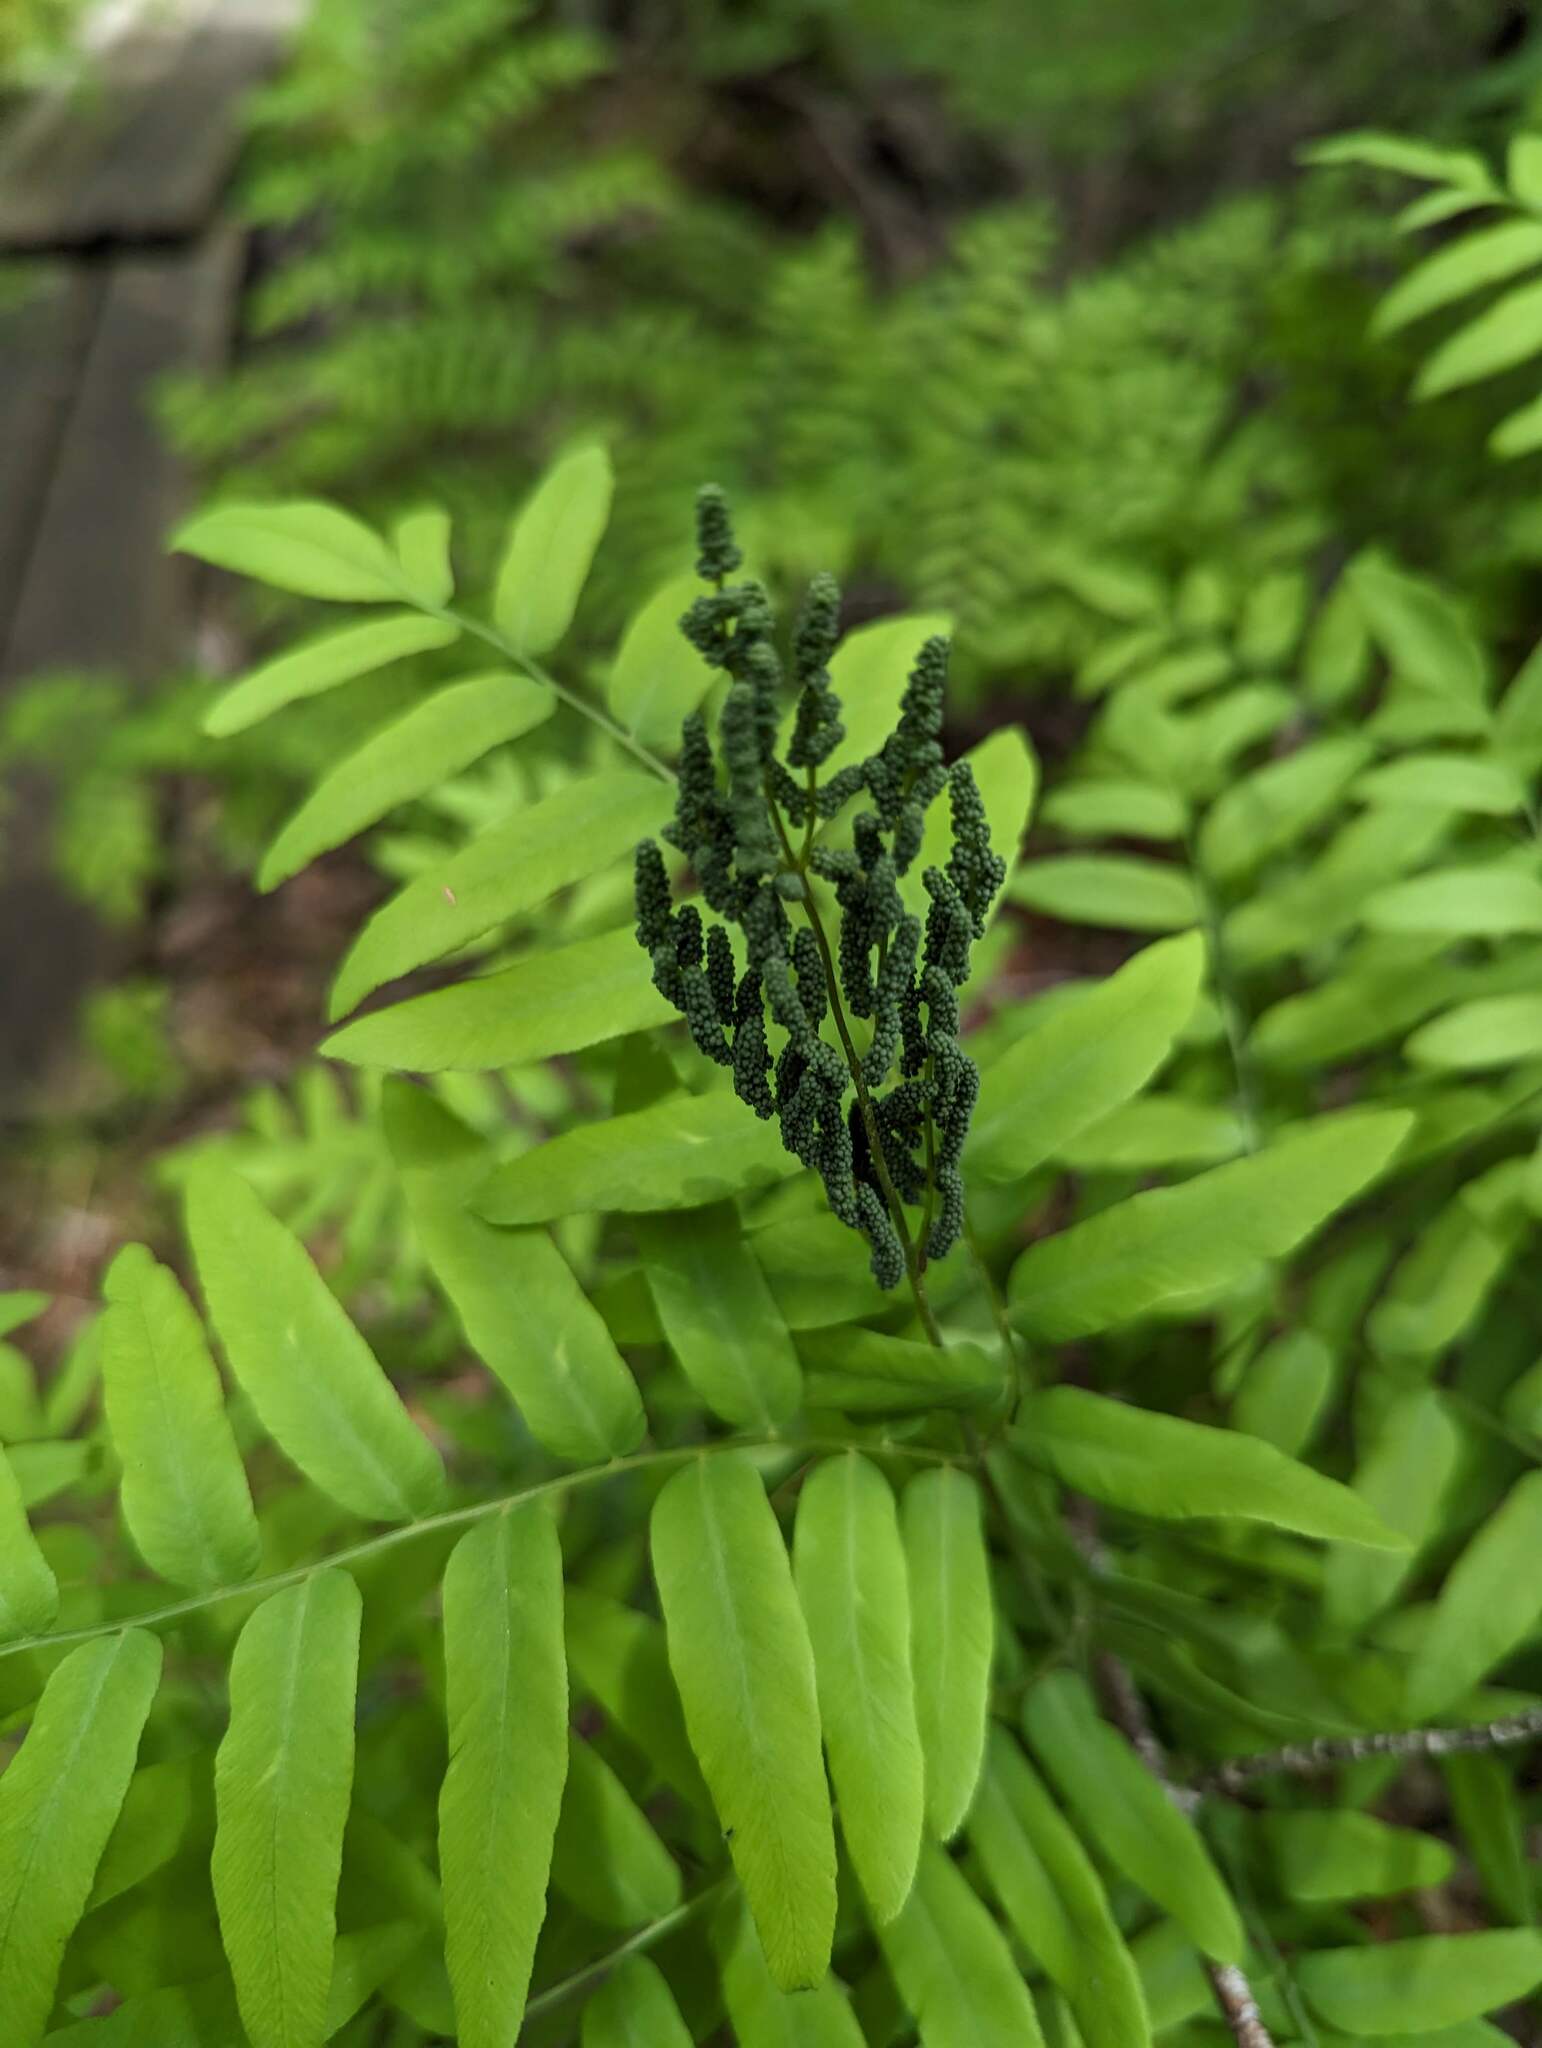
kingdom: Plantae
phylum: Tracheophyta
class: Polypodiopsida
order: Osmundales
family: Osmundaceae
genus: Osmunda
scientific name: Osmunda spectabilis
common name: American royal fern
